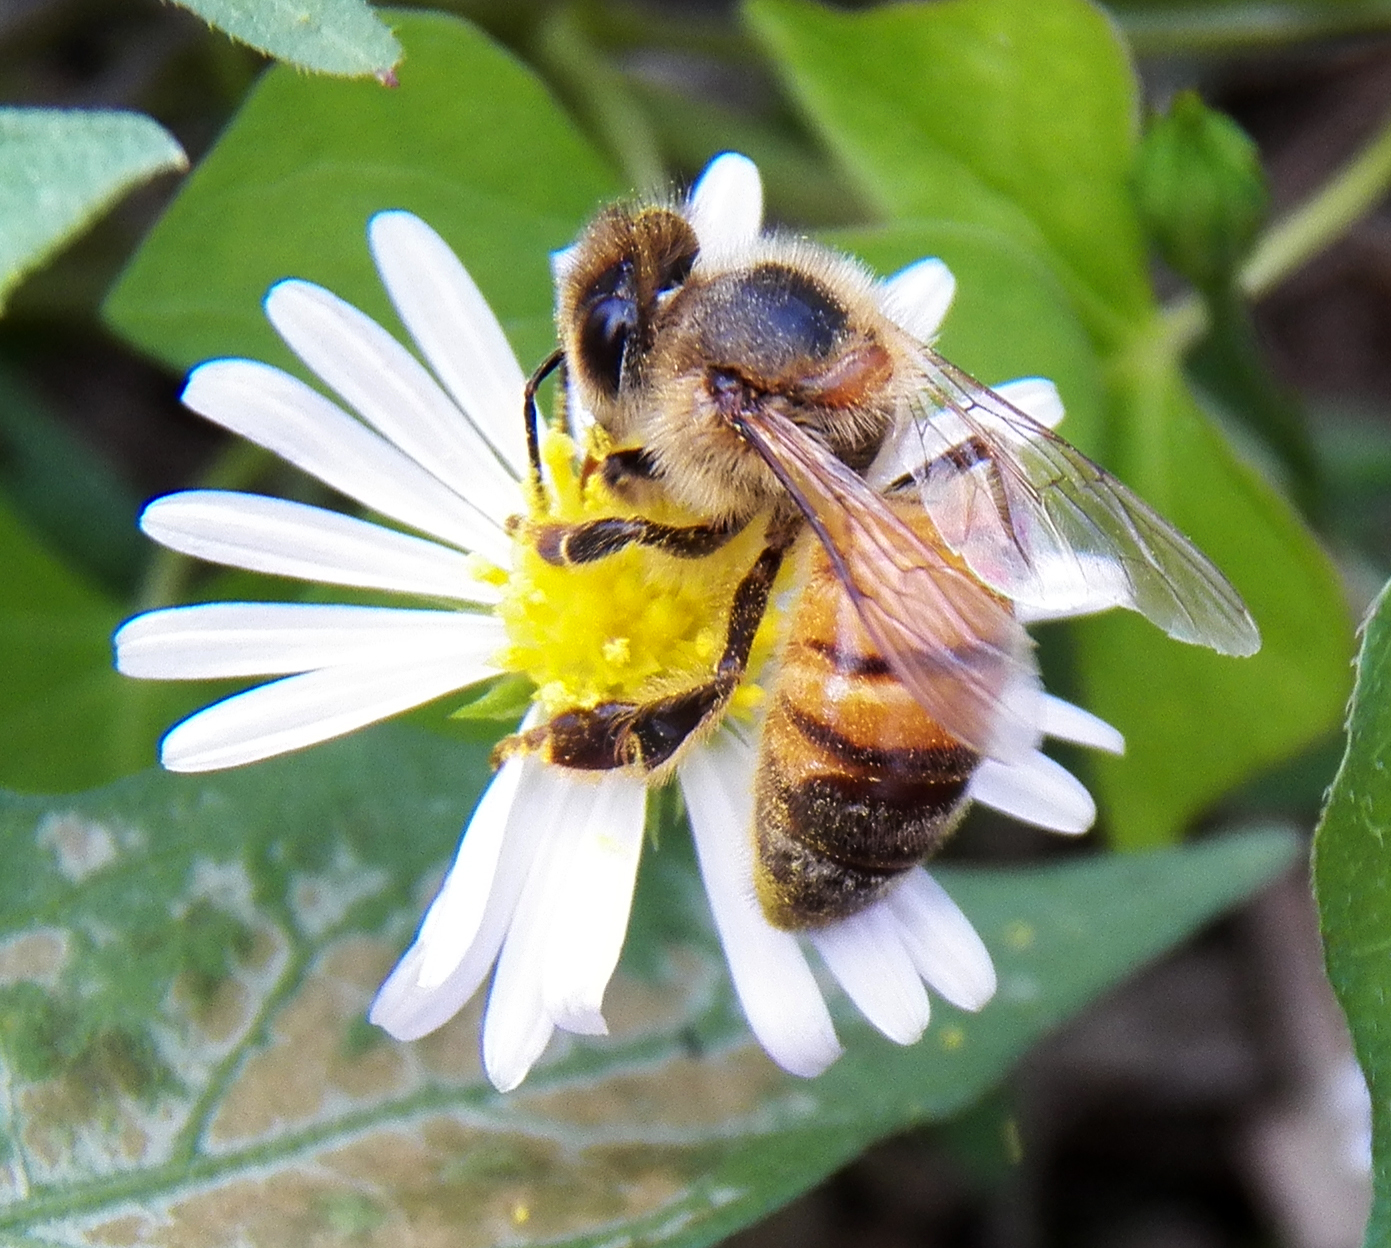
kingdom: Animalia
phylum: Arthropoda
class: Insecta
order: Hymenoptera
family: Apidae
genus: Apis
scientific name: Apis mellifera
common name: Honey bee
